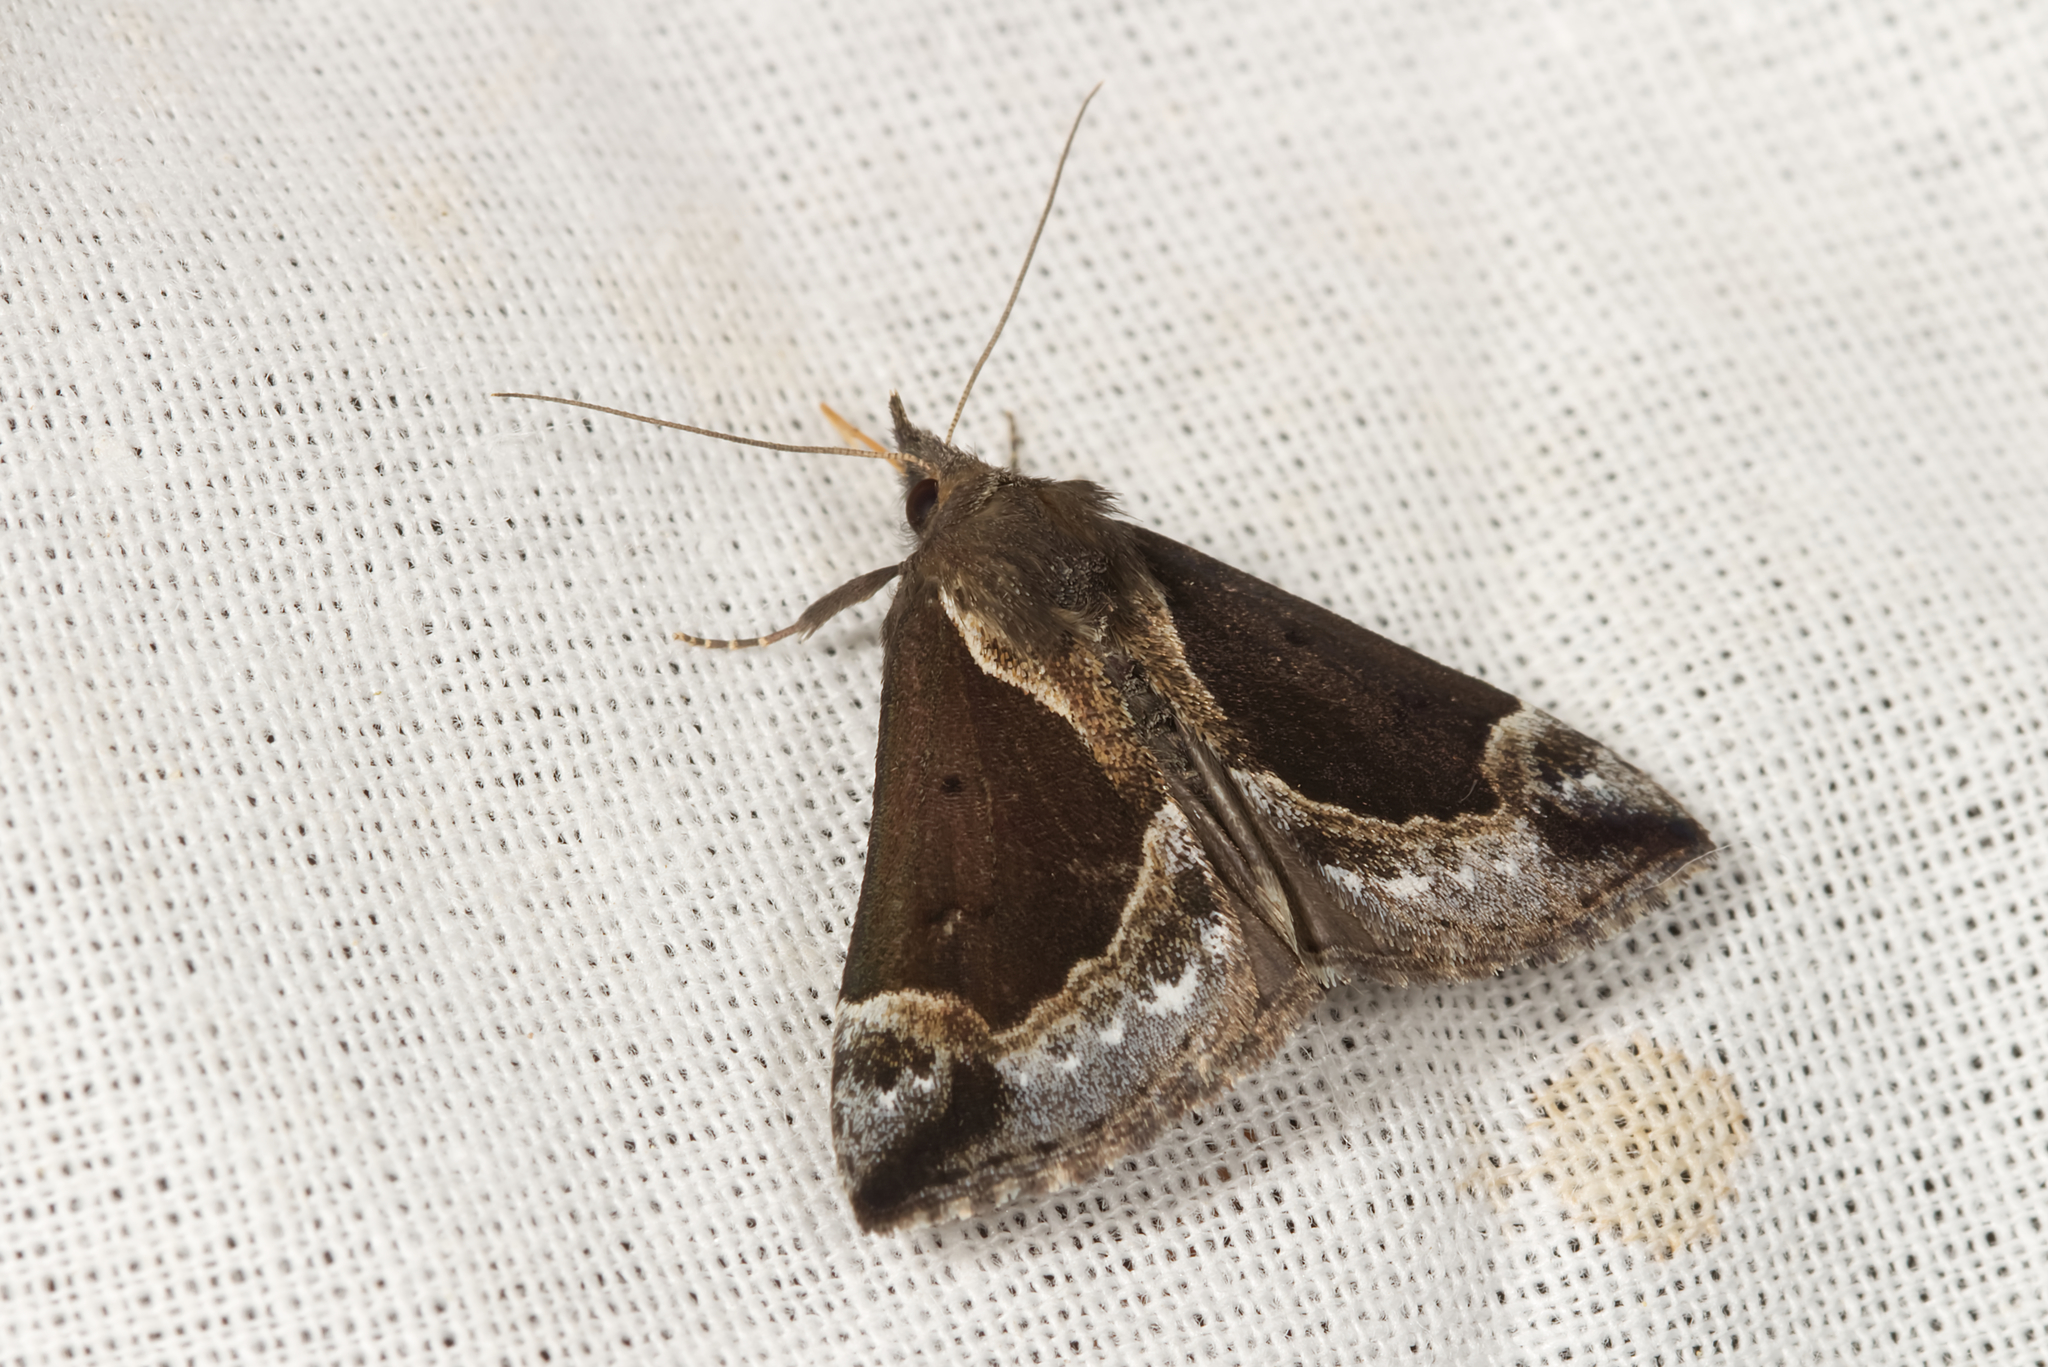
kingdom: Animalia
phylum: Arthropoda
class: Insecta
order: Lepidoptera
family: Erebidae
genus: Hypena
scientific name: Hypena crassalis
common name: Beautiful snout
